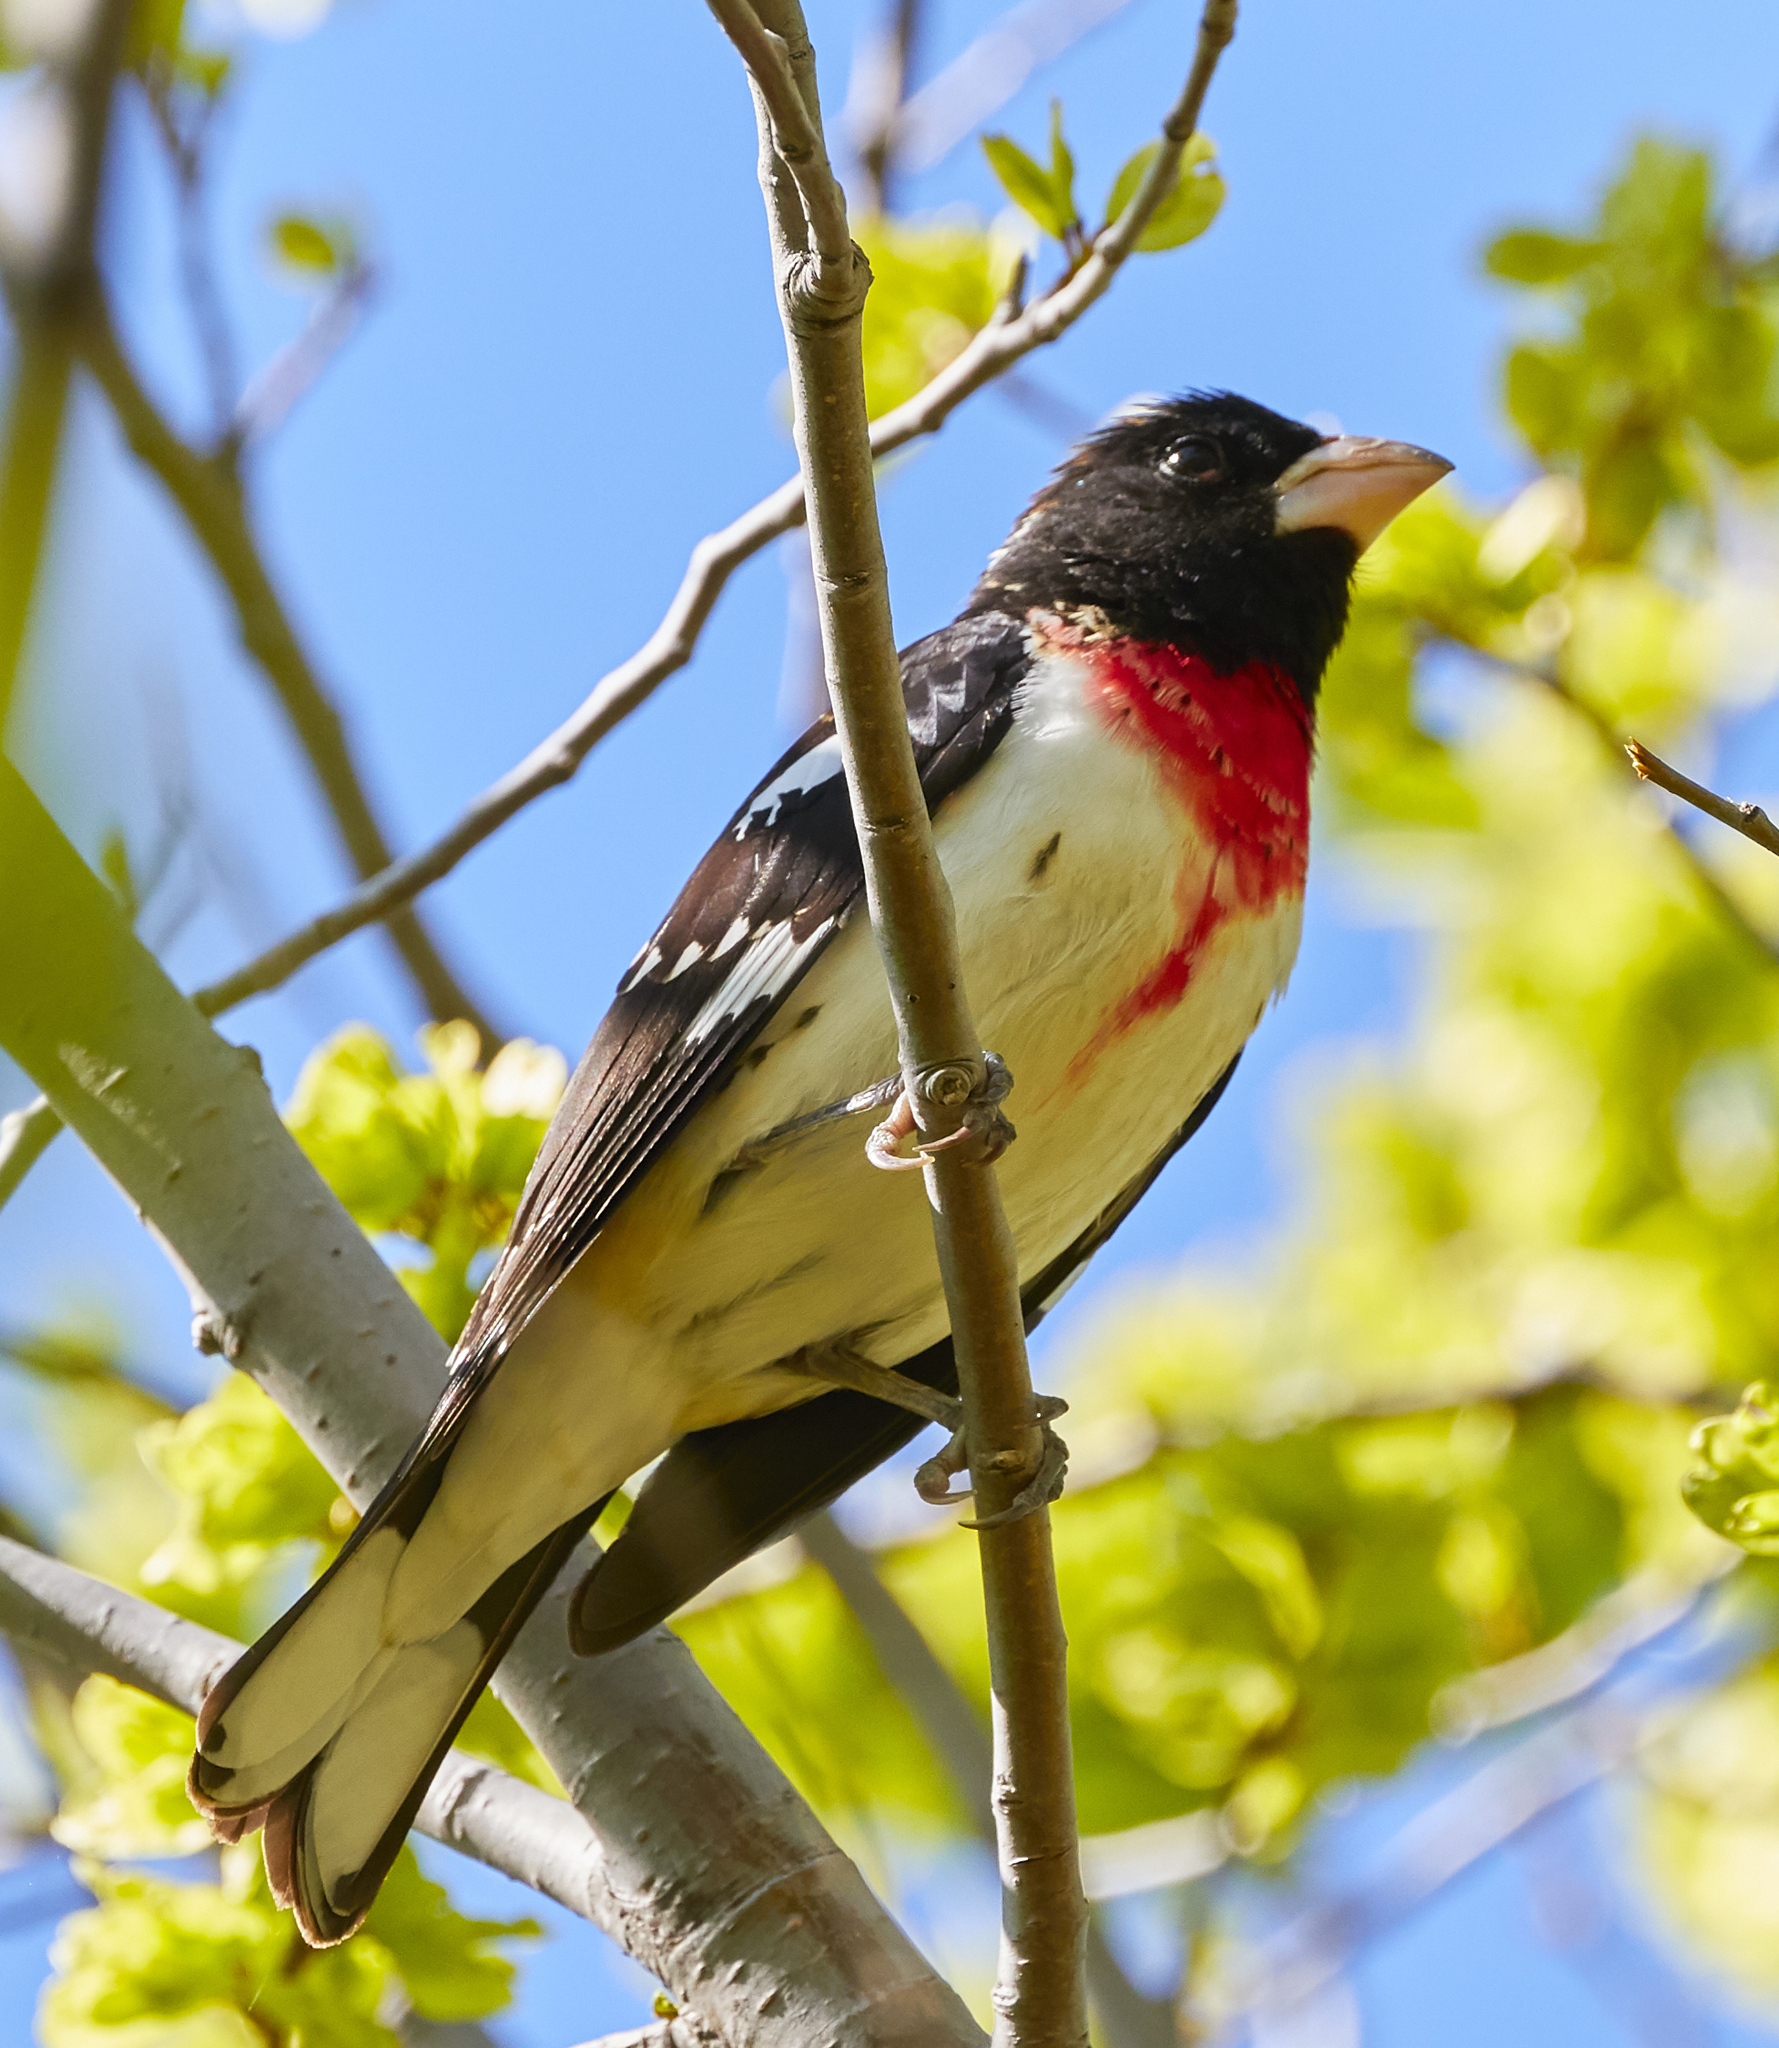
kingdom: Animalia
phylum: Chordata
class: Aves
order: Passeriformes
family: Cardinalidae
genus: Pheucticus
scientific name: Pheucticus ludovicianus
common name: Rose-breasted grosbeak
